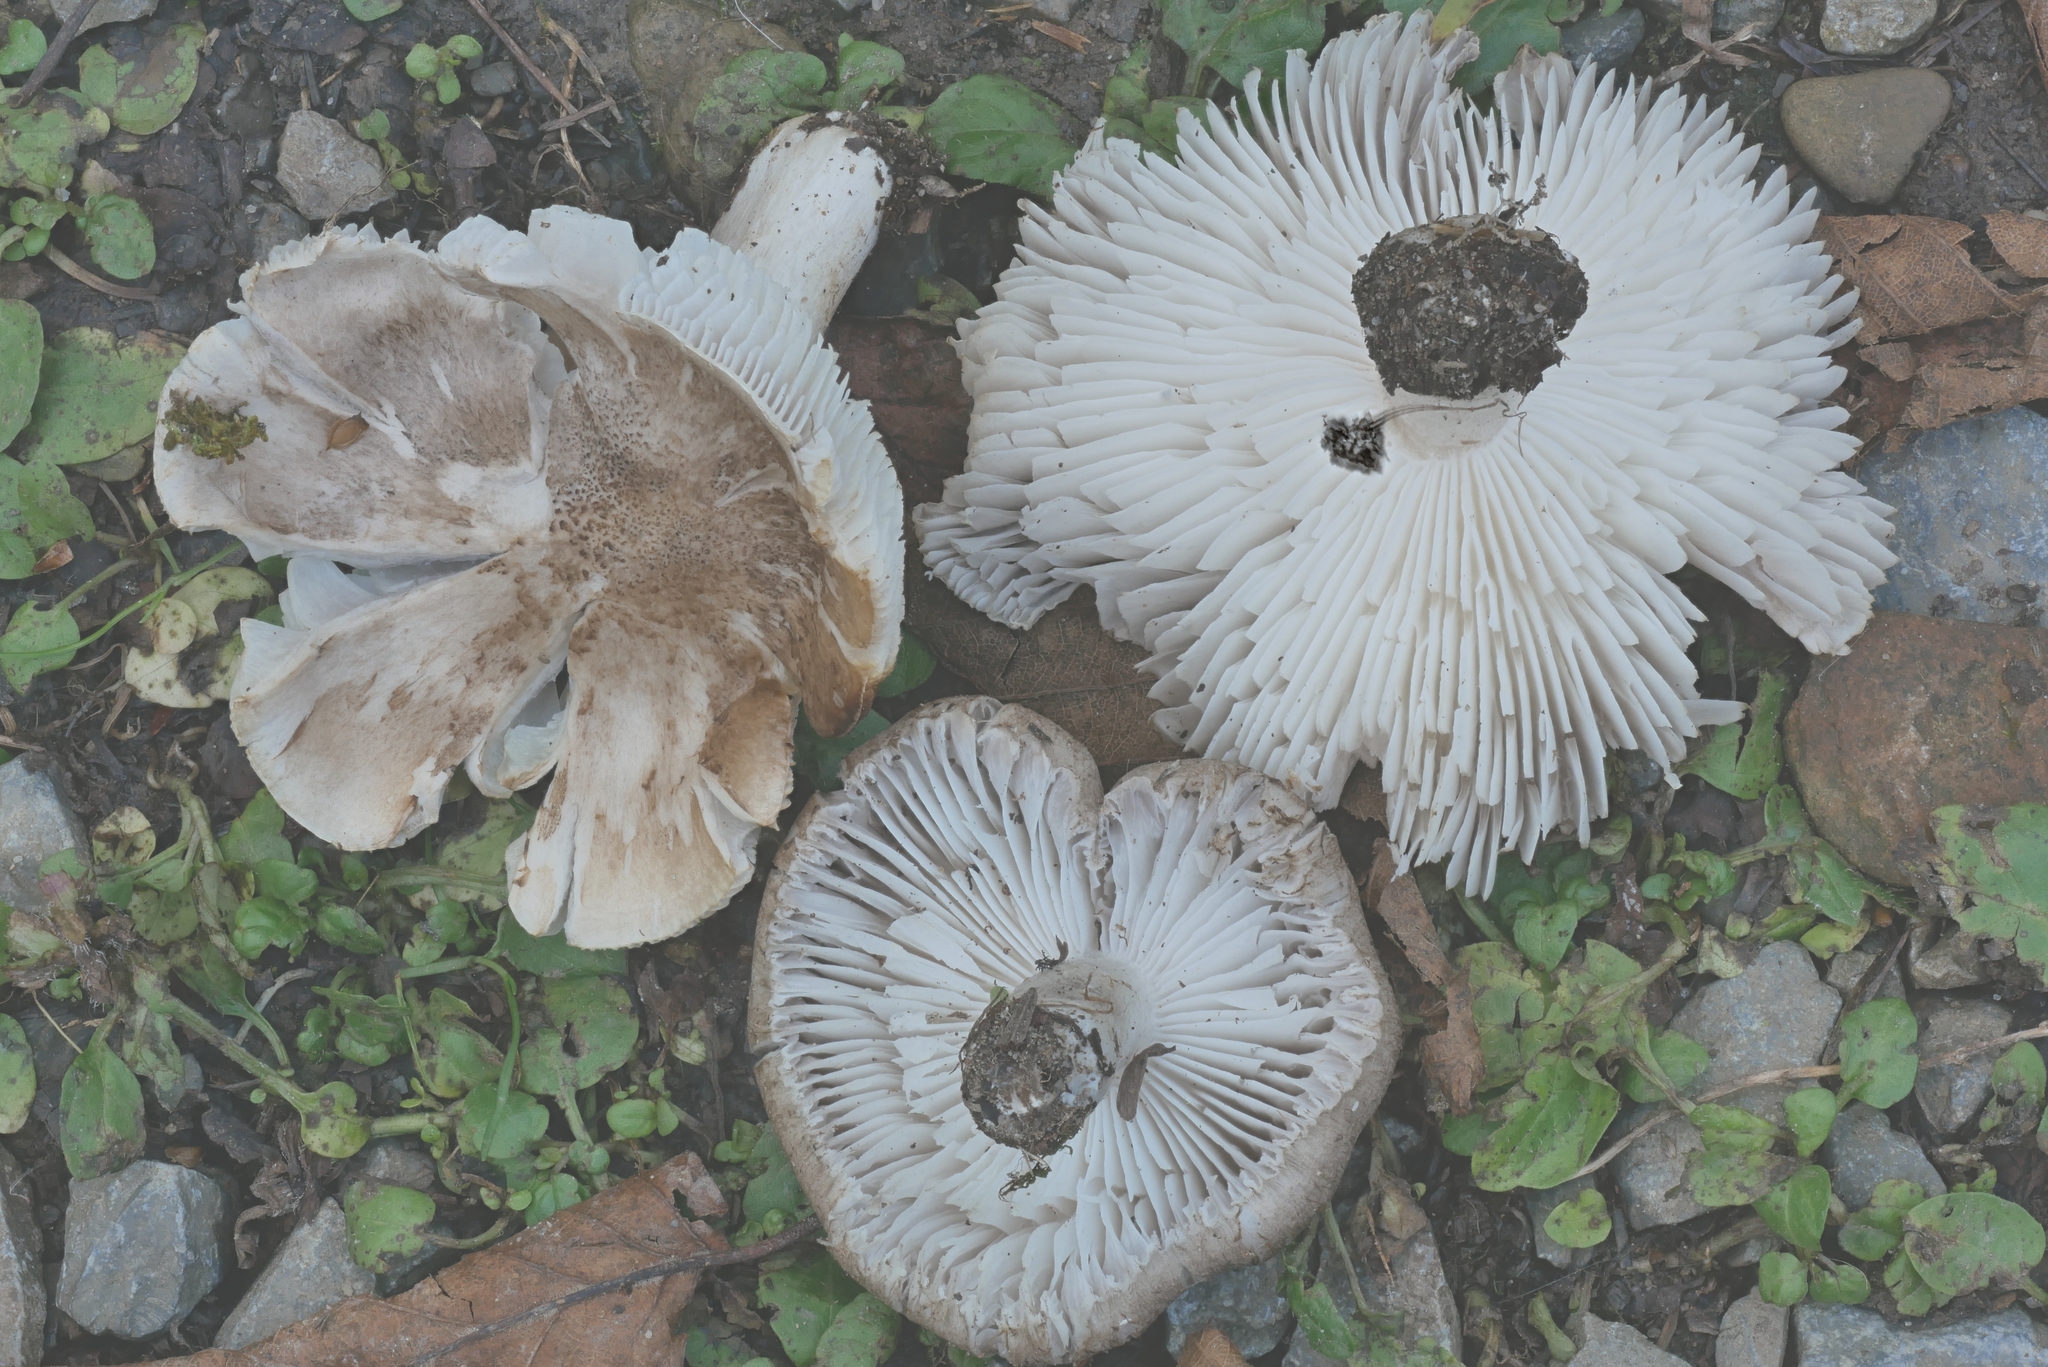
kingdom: Fungi
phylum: Basidiomycota
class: Agaricomycetes
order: Agaricales
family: Tricholomataceae
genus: Tricholoma
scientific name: Tricholoma argyraceum
